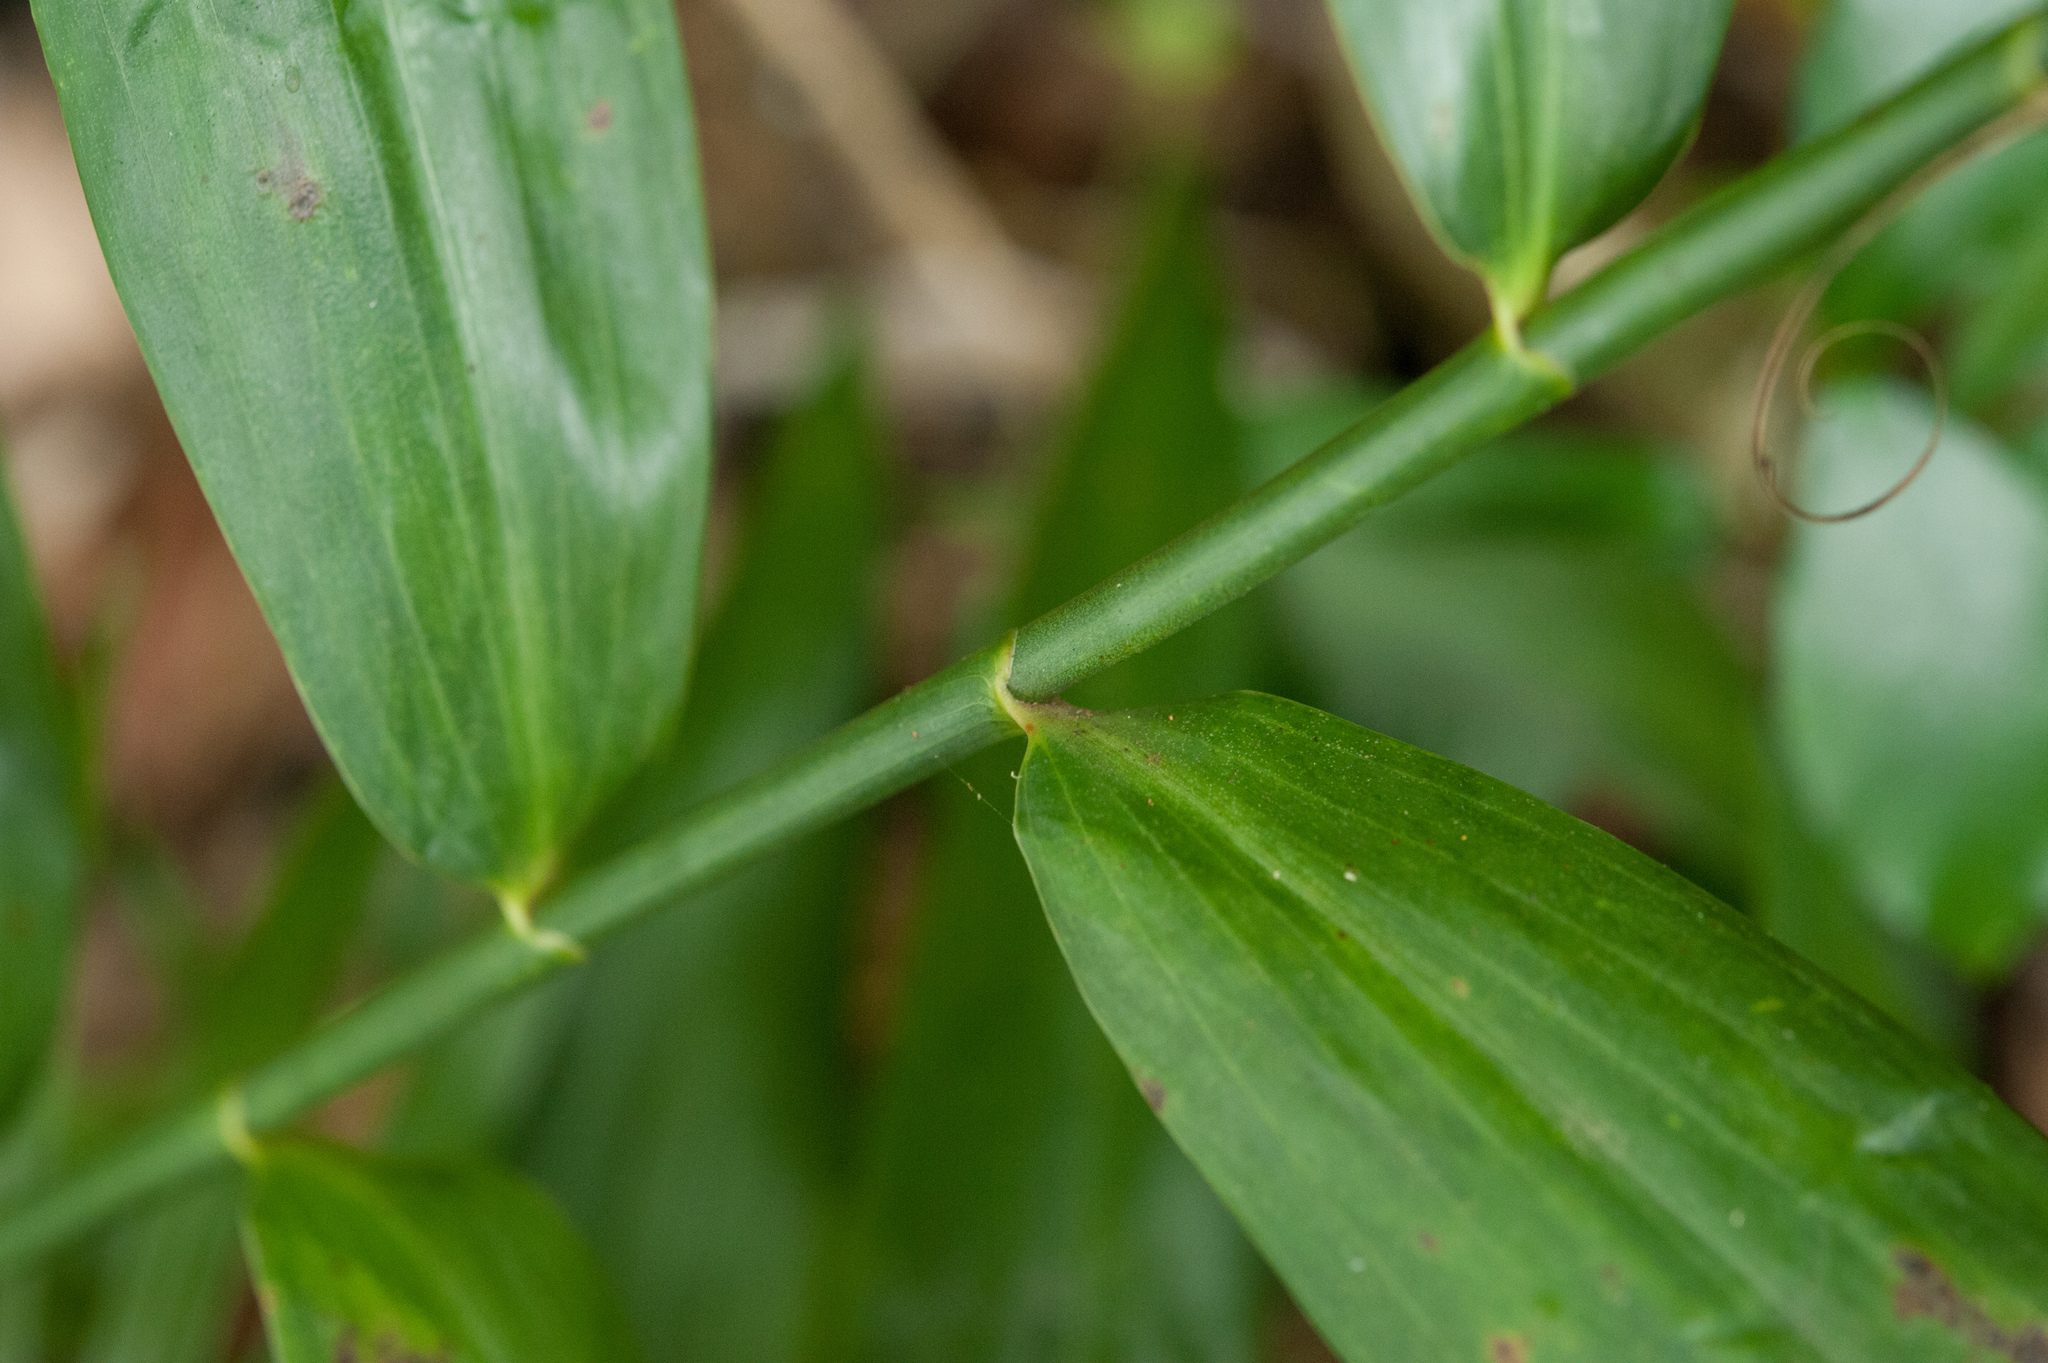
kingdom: Plantae
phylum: Tracheophyta
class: Liliopsida
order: Poales
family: Flagellariaceae
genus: Flagellaria
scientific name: Flagellaria indica
